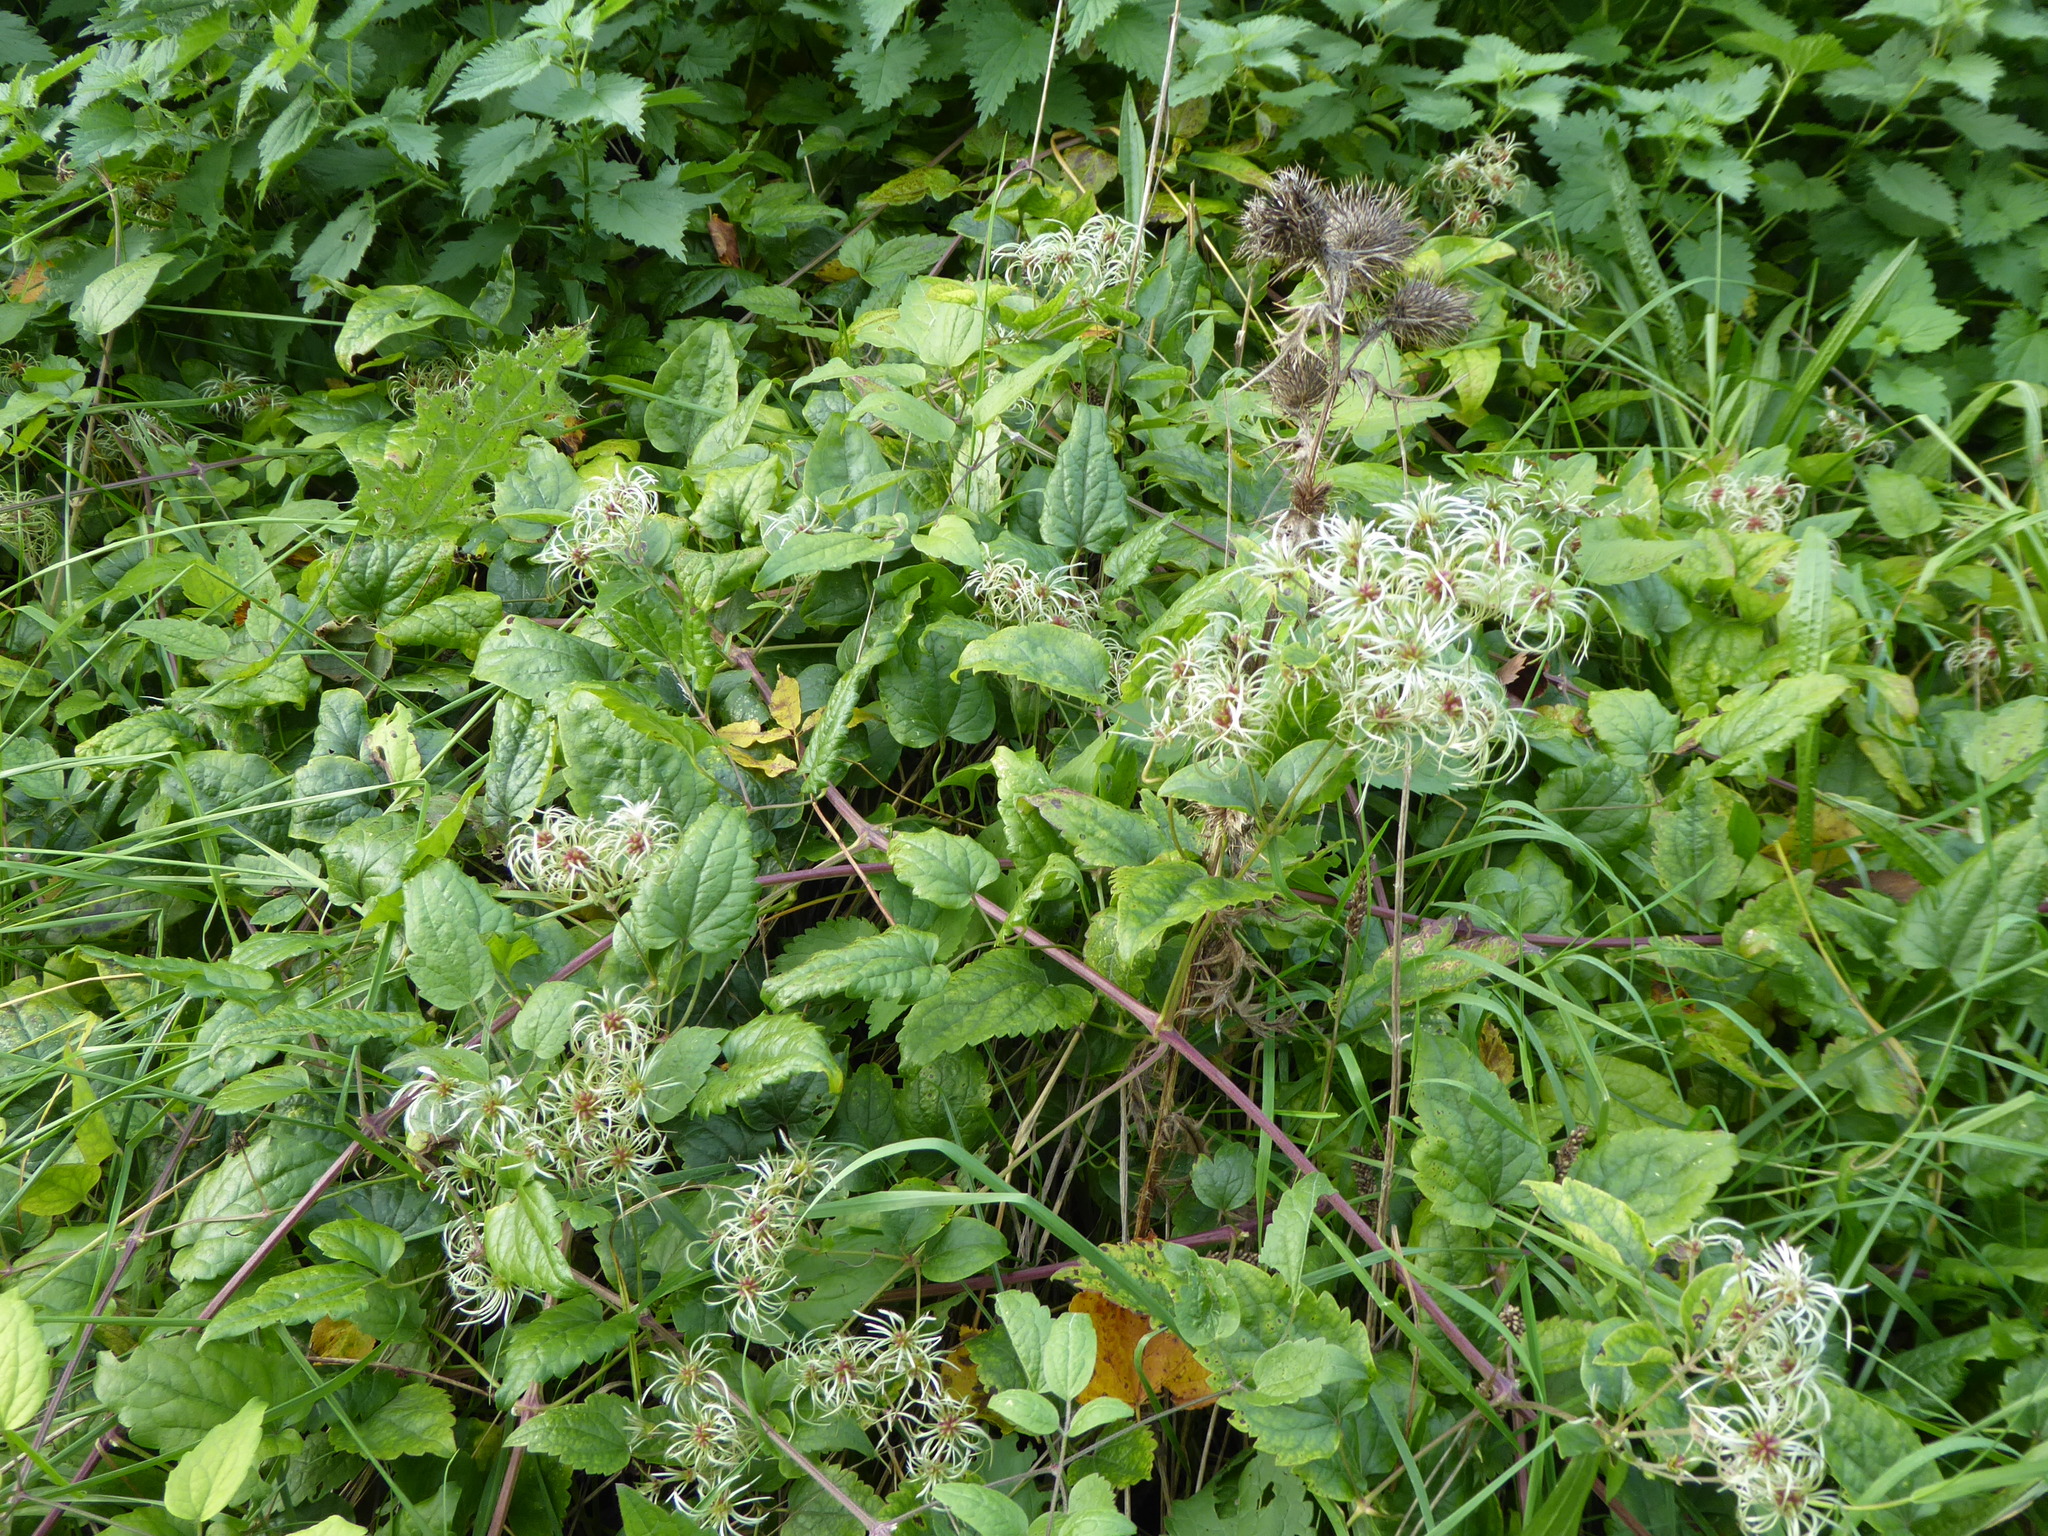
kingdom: Plantae
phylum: Tracheophyta
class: Magnoliopsida
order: Ranunculales
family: Ranunculaceae
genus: Clematis
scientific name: Clematis vitalba
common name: Evergreen clematis
